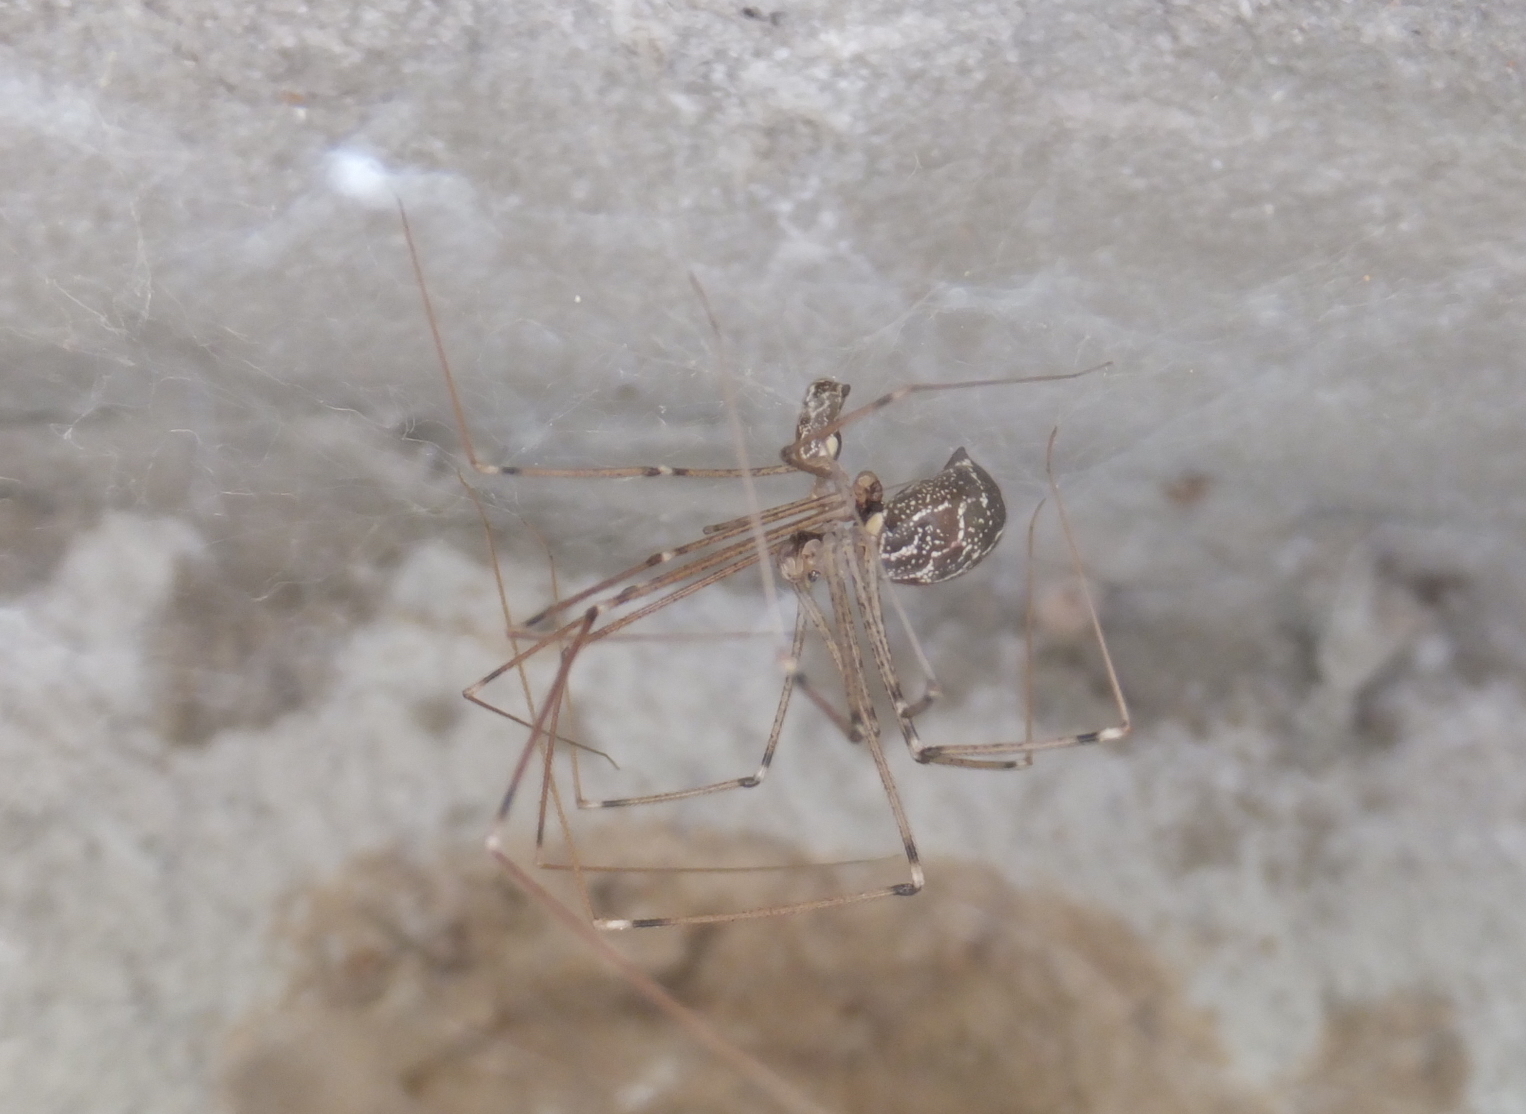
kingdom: Animalia
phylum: Arthropoda
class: Arachnida
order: Araneae
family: Pholcidae
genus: Holocnemus
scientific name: Holocnemus pluchei
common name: Marbled cellar spider
